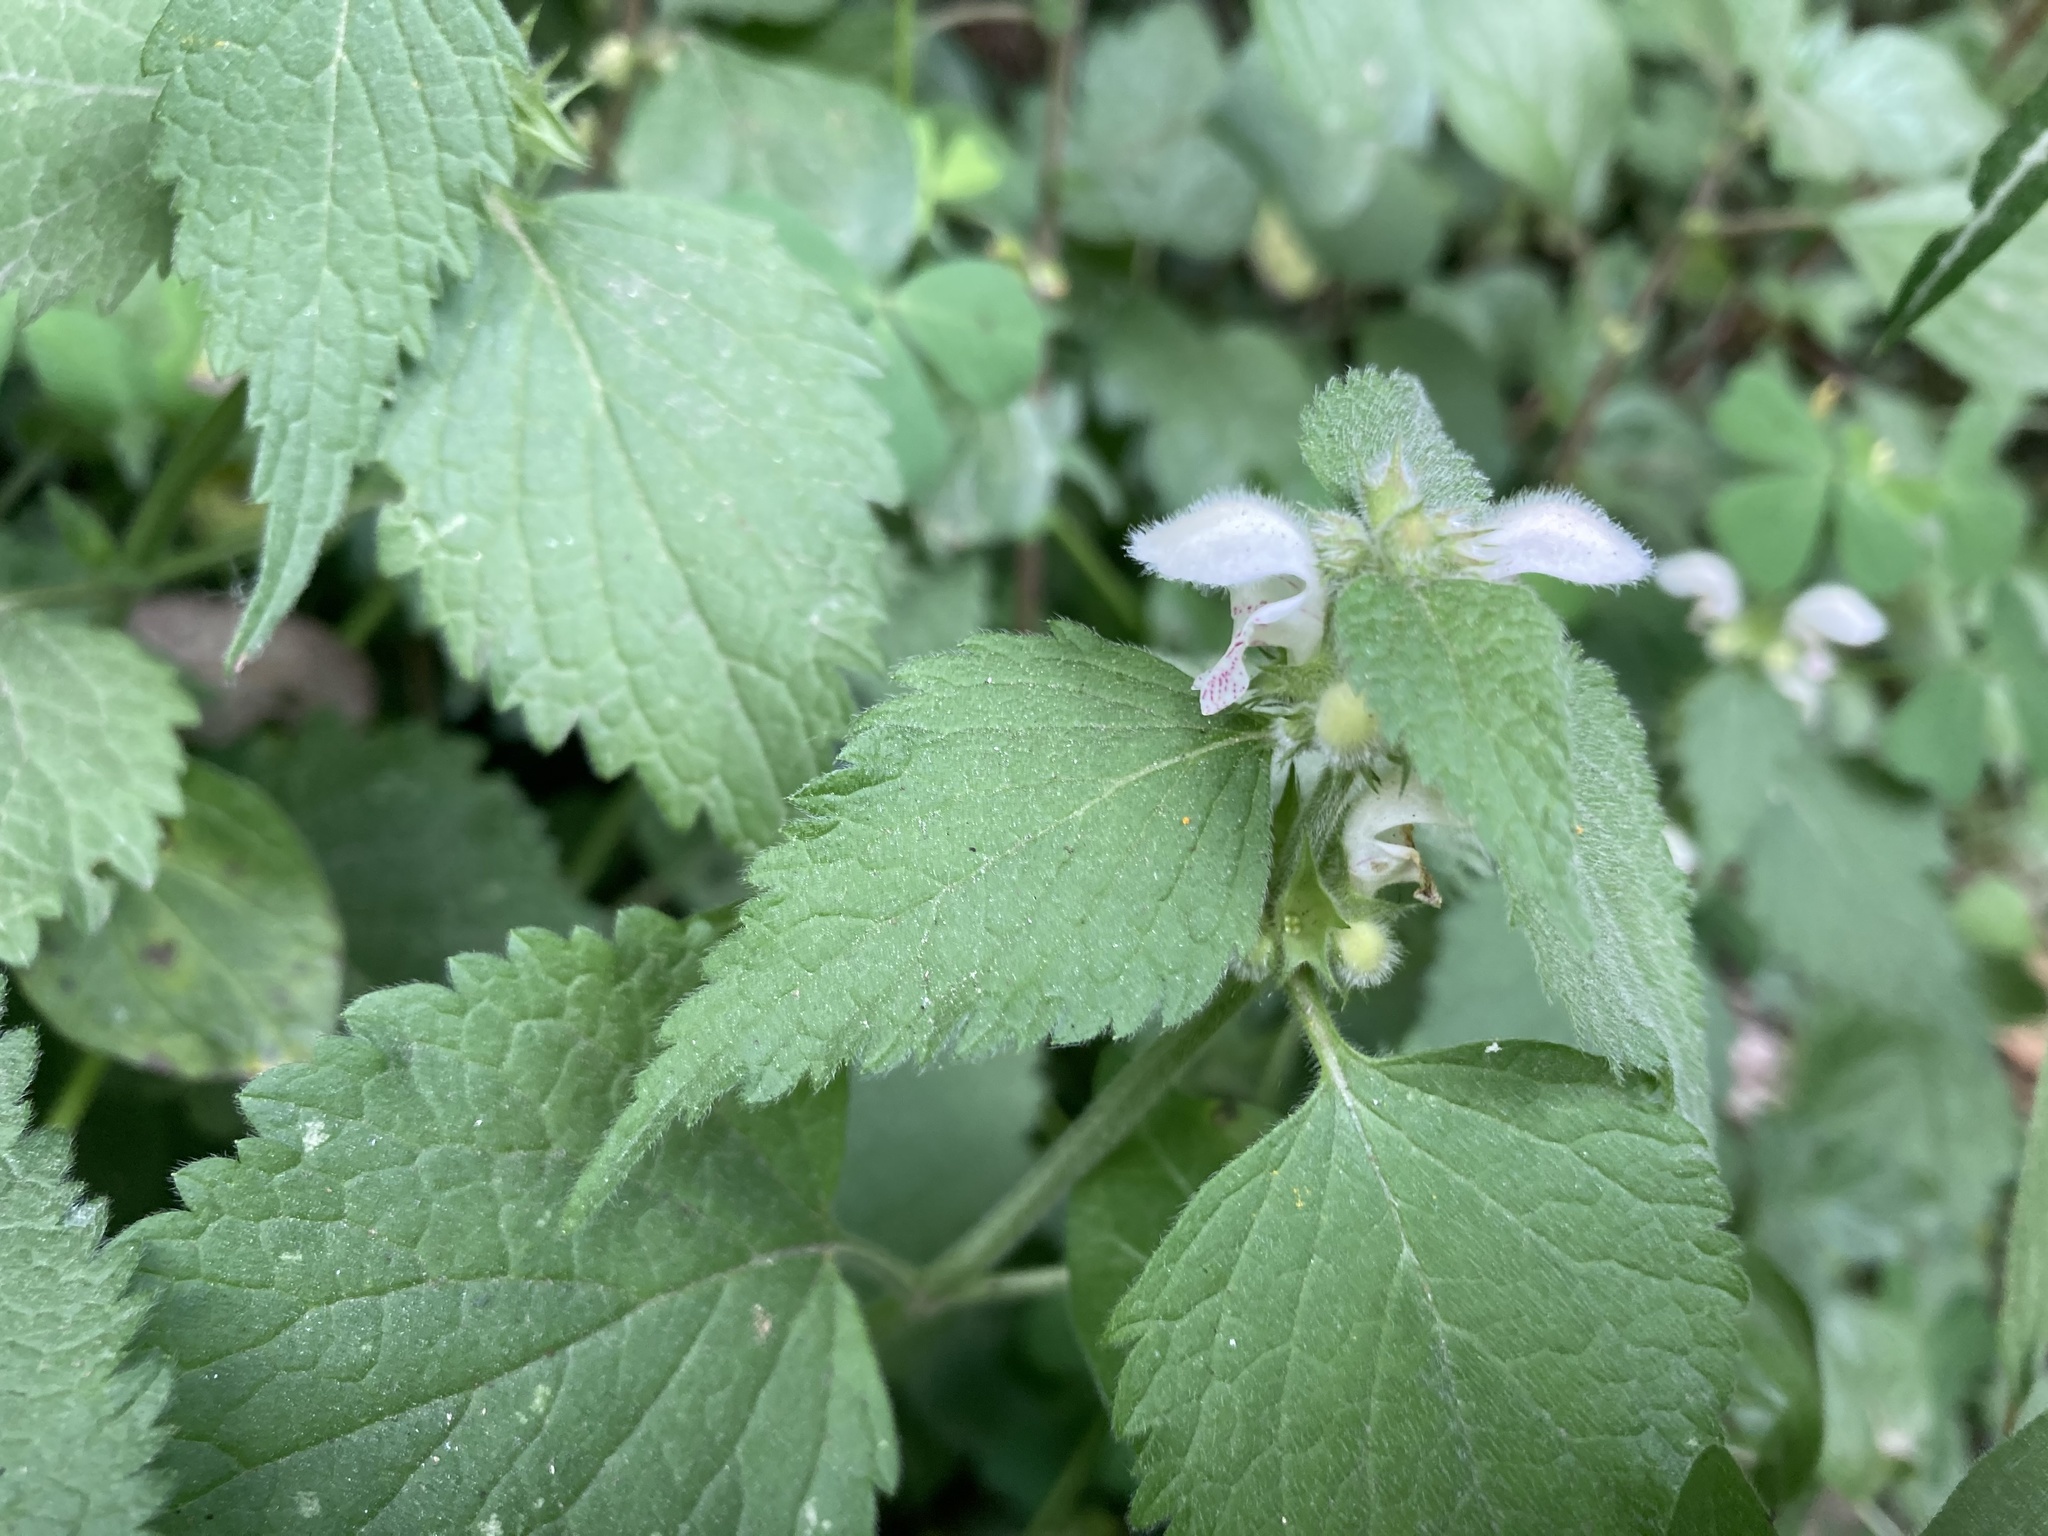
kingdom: Plantae
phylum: Tracheophyta
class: Magnoliopsida
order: Lamiales
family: Lamiaceae
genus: Lamium
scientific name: Lamium flexuosum
